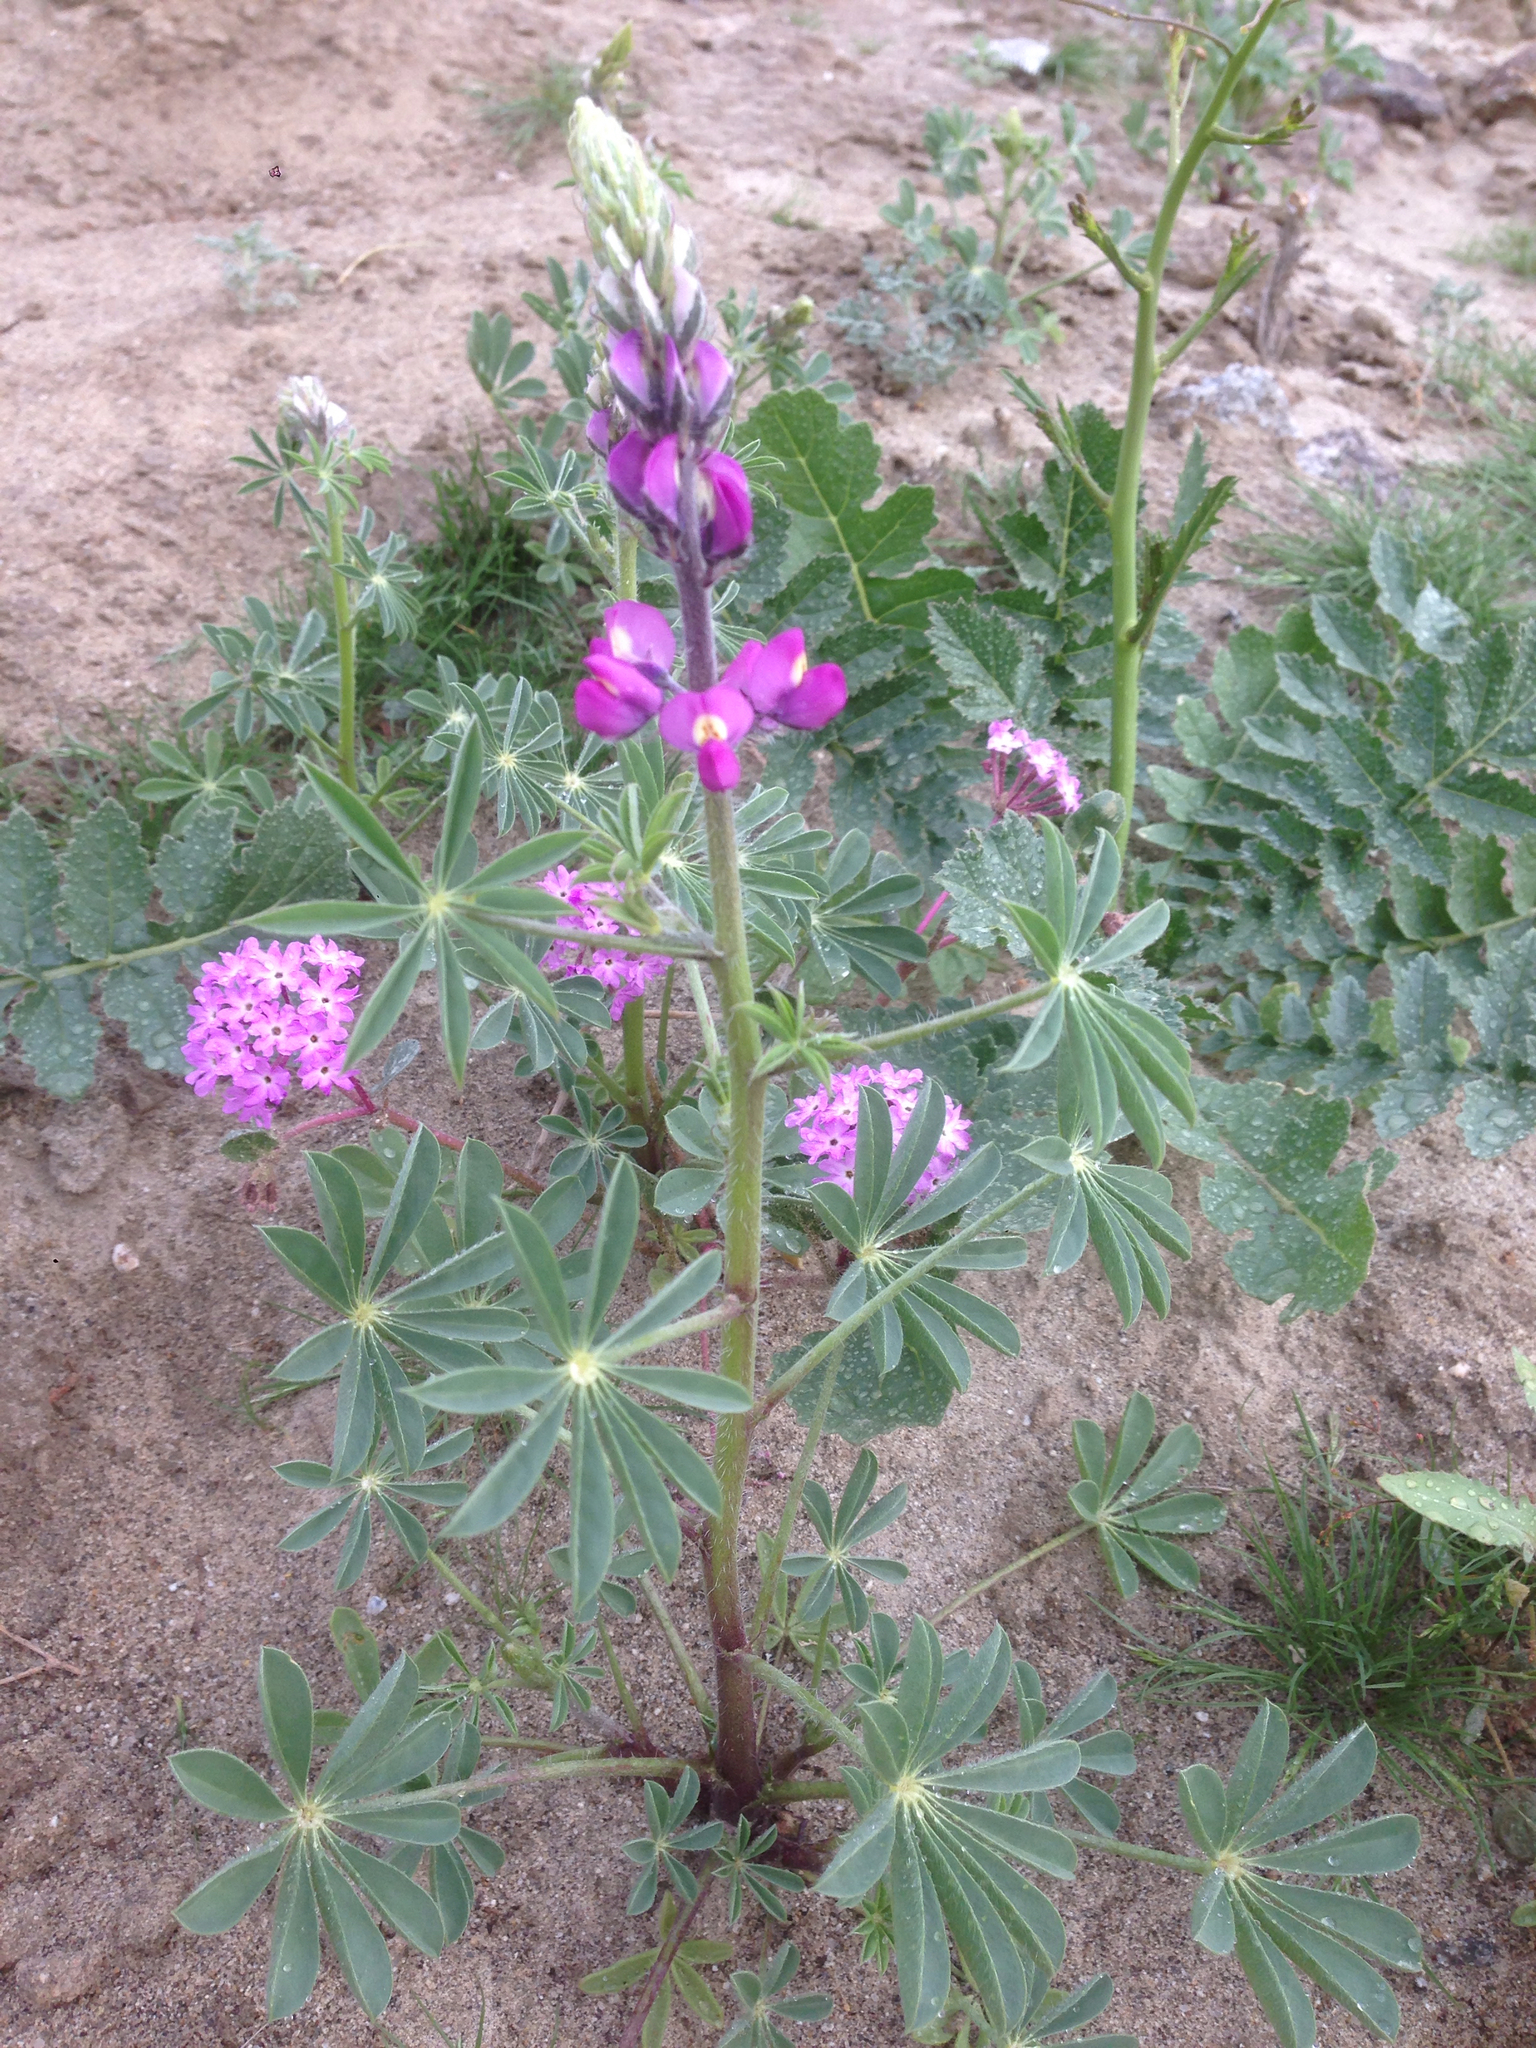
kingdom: Plantae
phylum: Tracheophyta
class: Magnoliopsida
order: Fabales
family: Fabaceae
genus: Lupinus
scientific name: Lupinus arizonicus
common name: Arizona lupine
